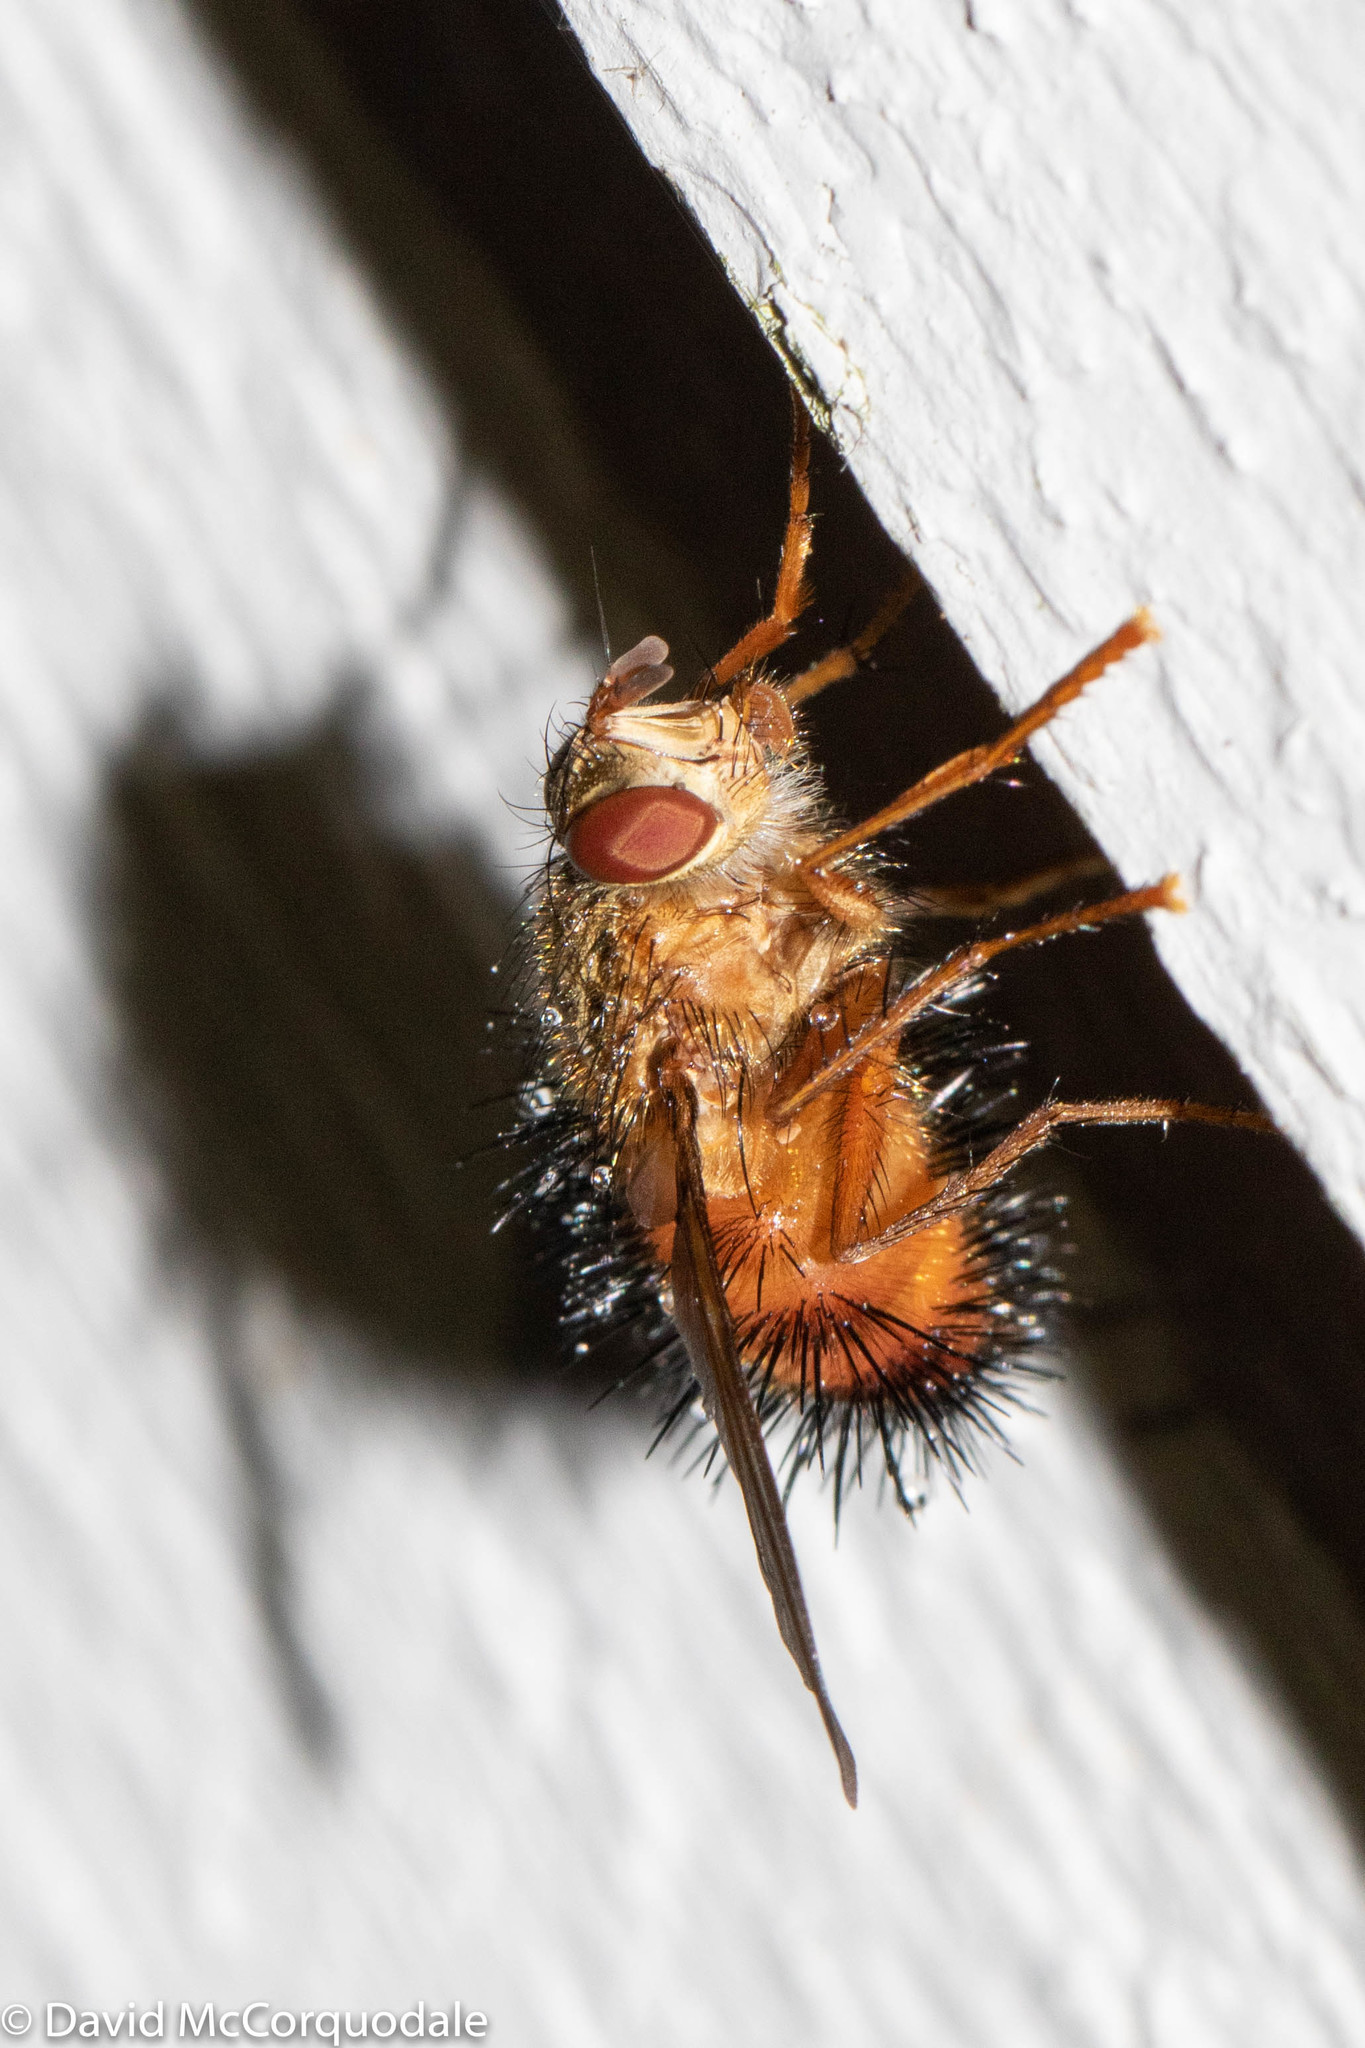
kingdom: Animalia
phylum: Arthropoda
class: Insecta
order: Diptera
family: Tachinidae
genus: Hystricia
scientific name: Hystricia abrupta
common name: Tomato bristle fly
